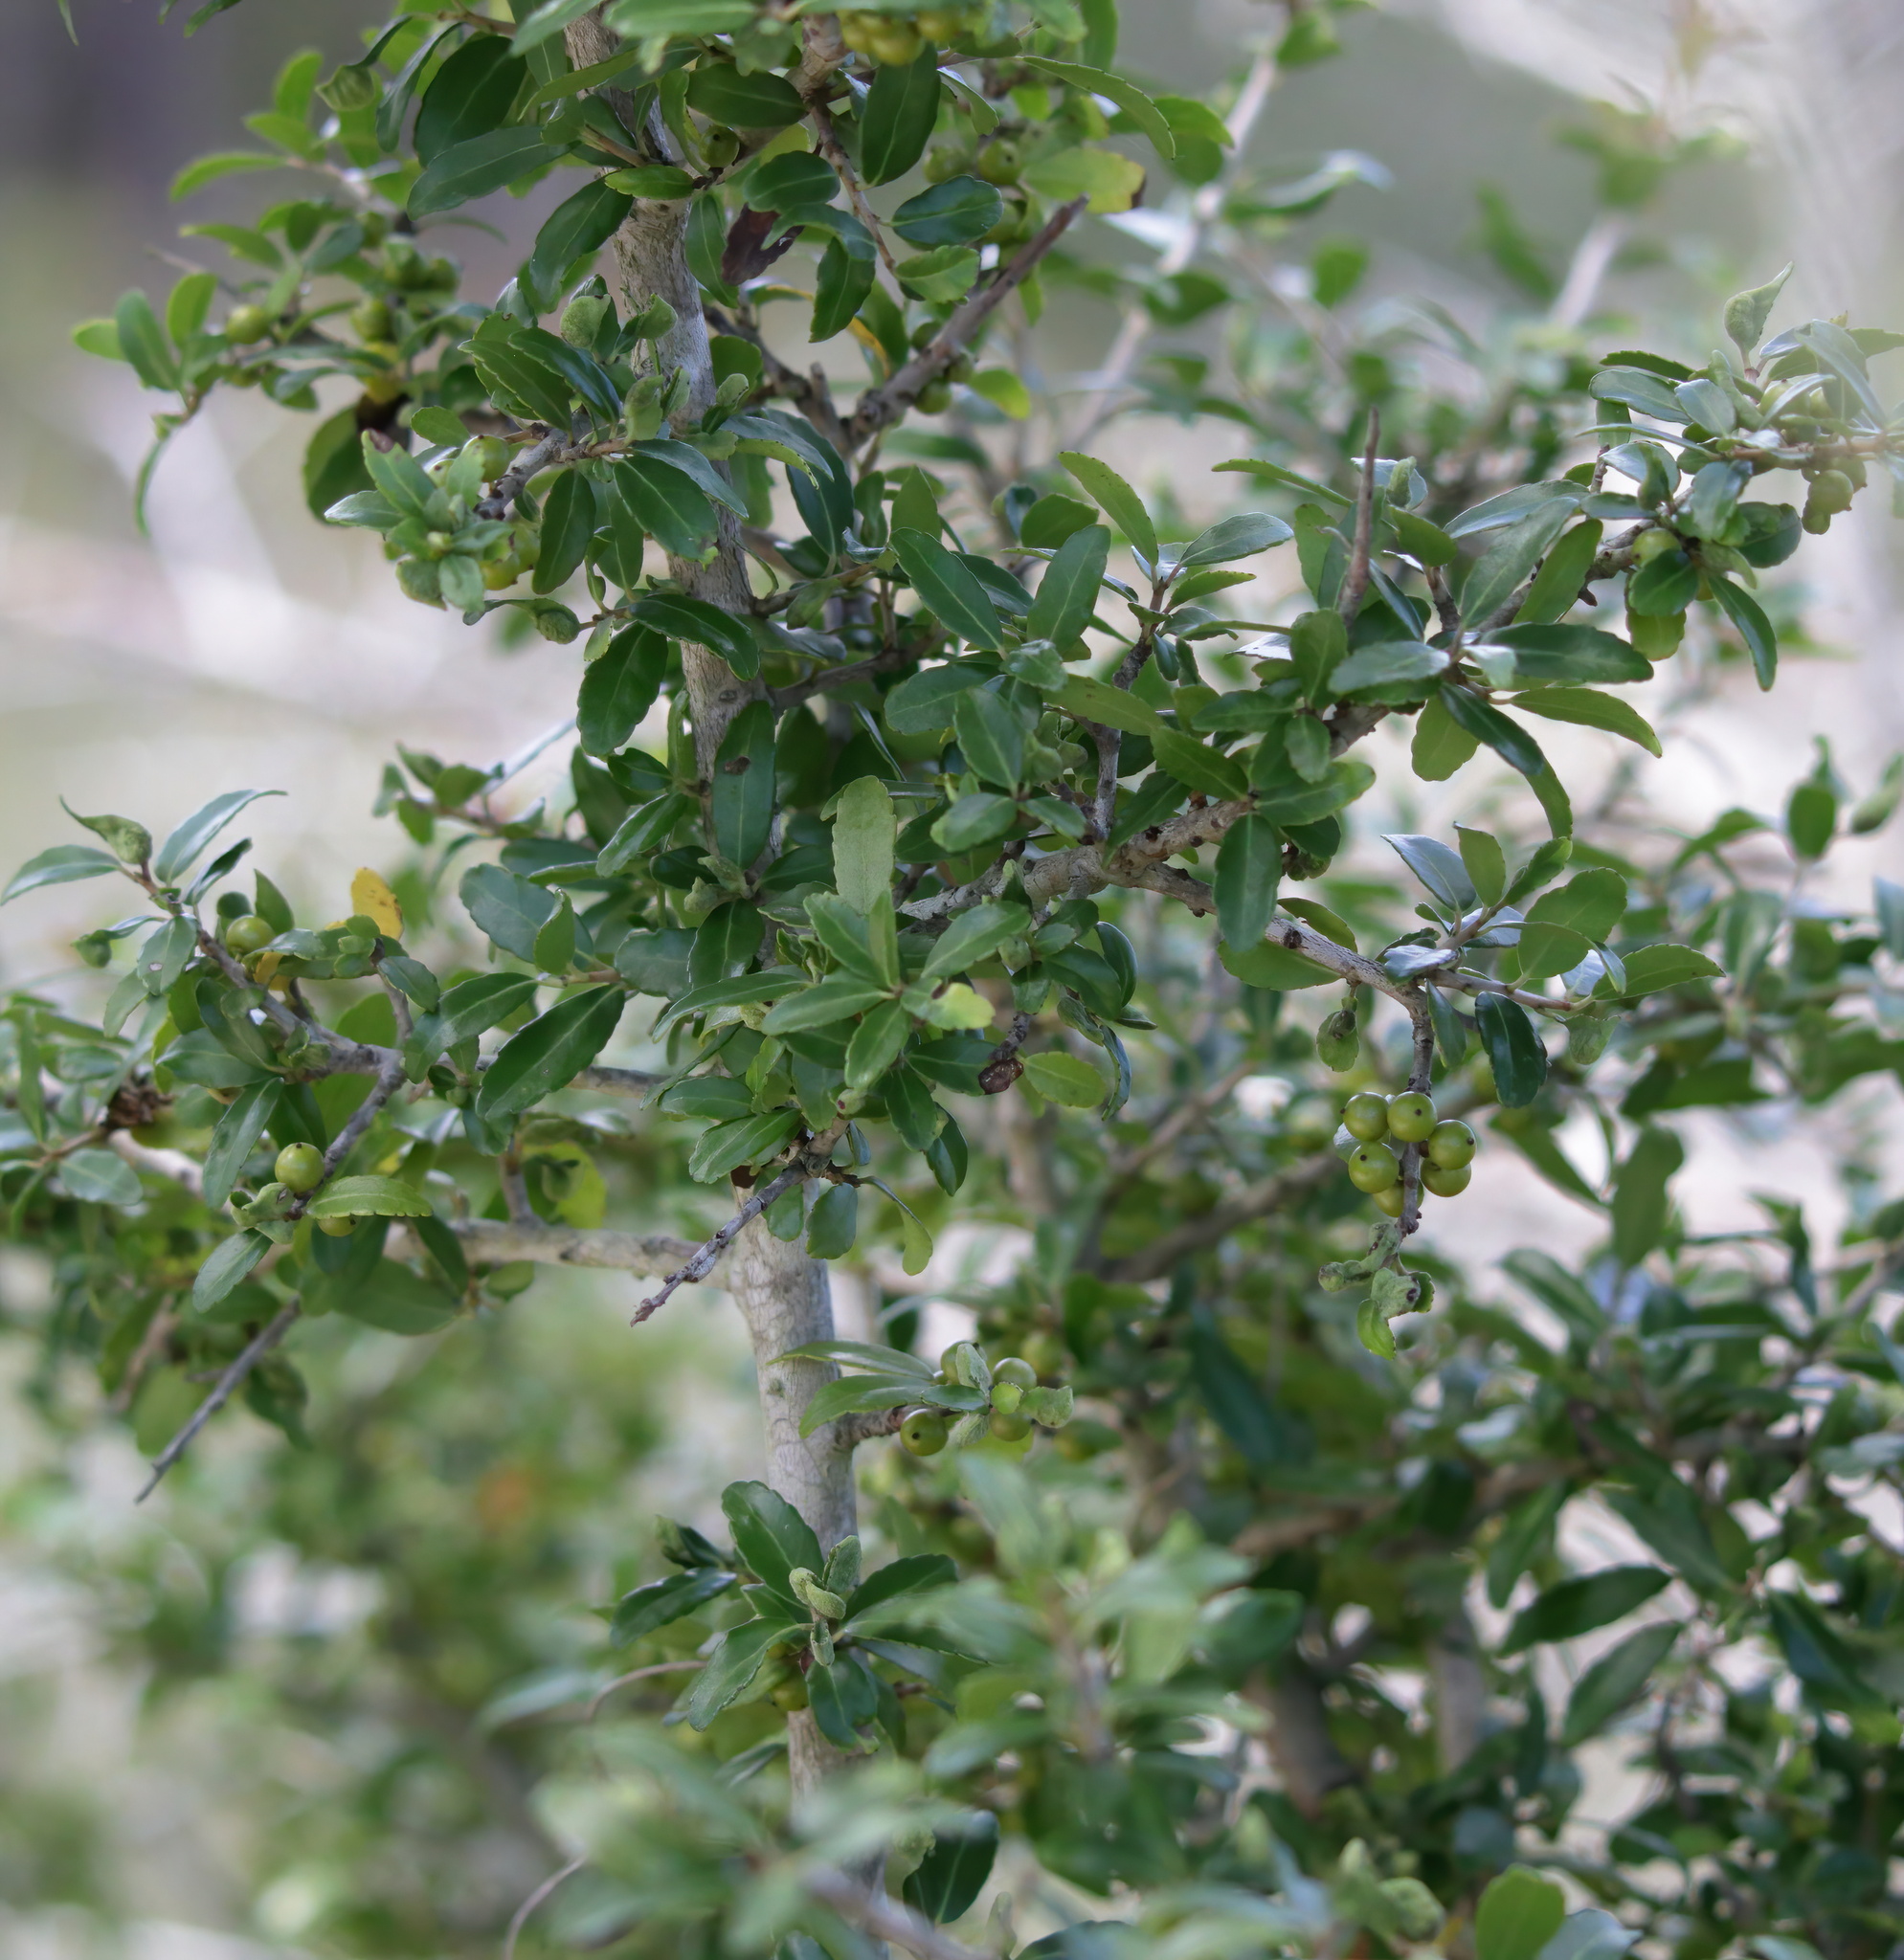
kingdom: Plantae
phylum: Tracheophyta
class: Magnoliopsida
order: Aquifoliales
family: Aquifoliaceae
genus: Ilex
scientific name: Ilex vomitoria
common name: Yaupon holly
